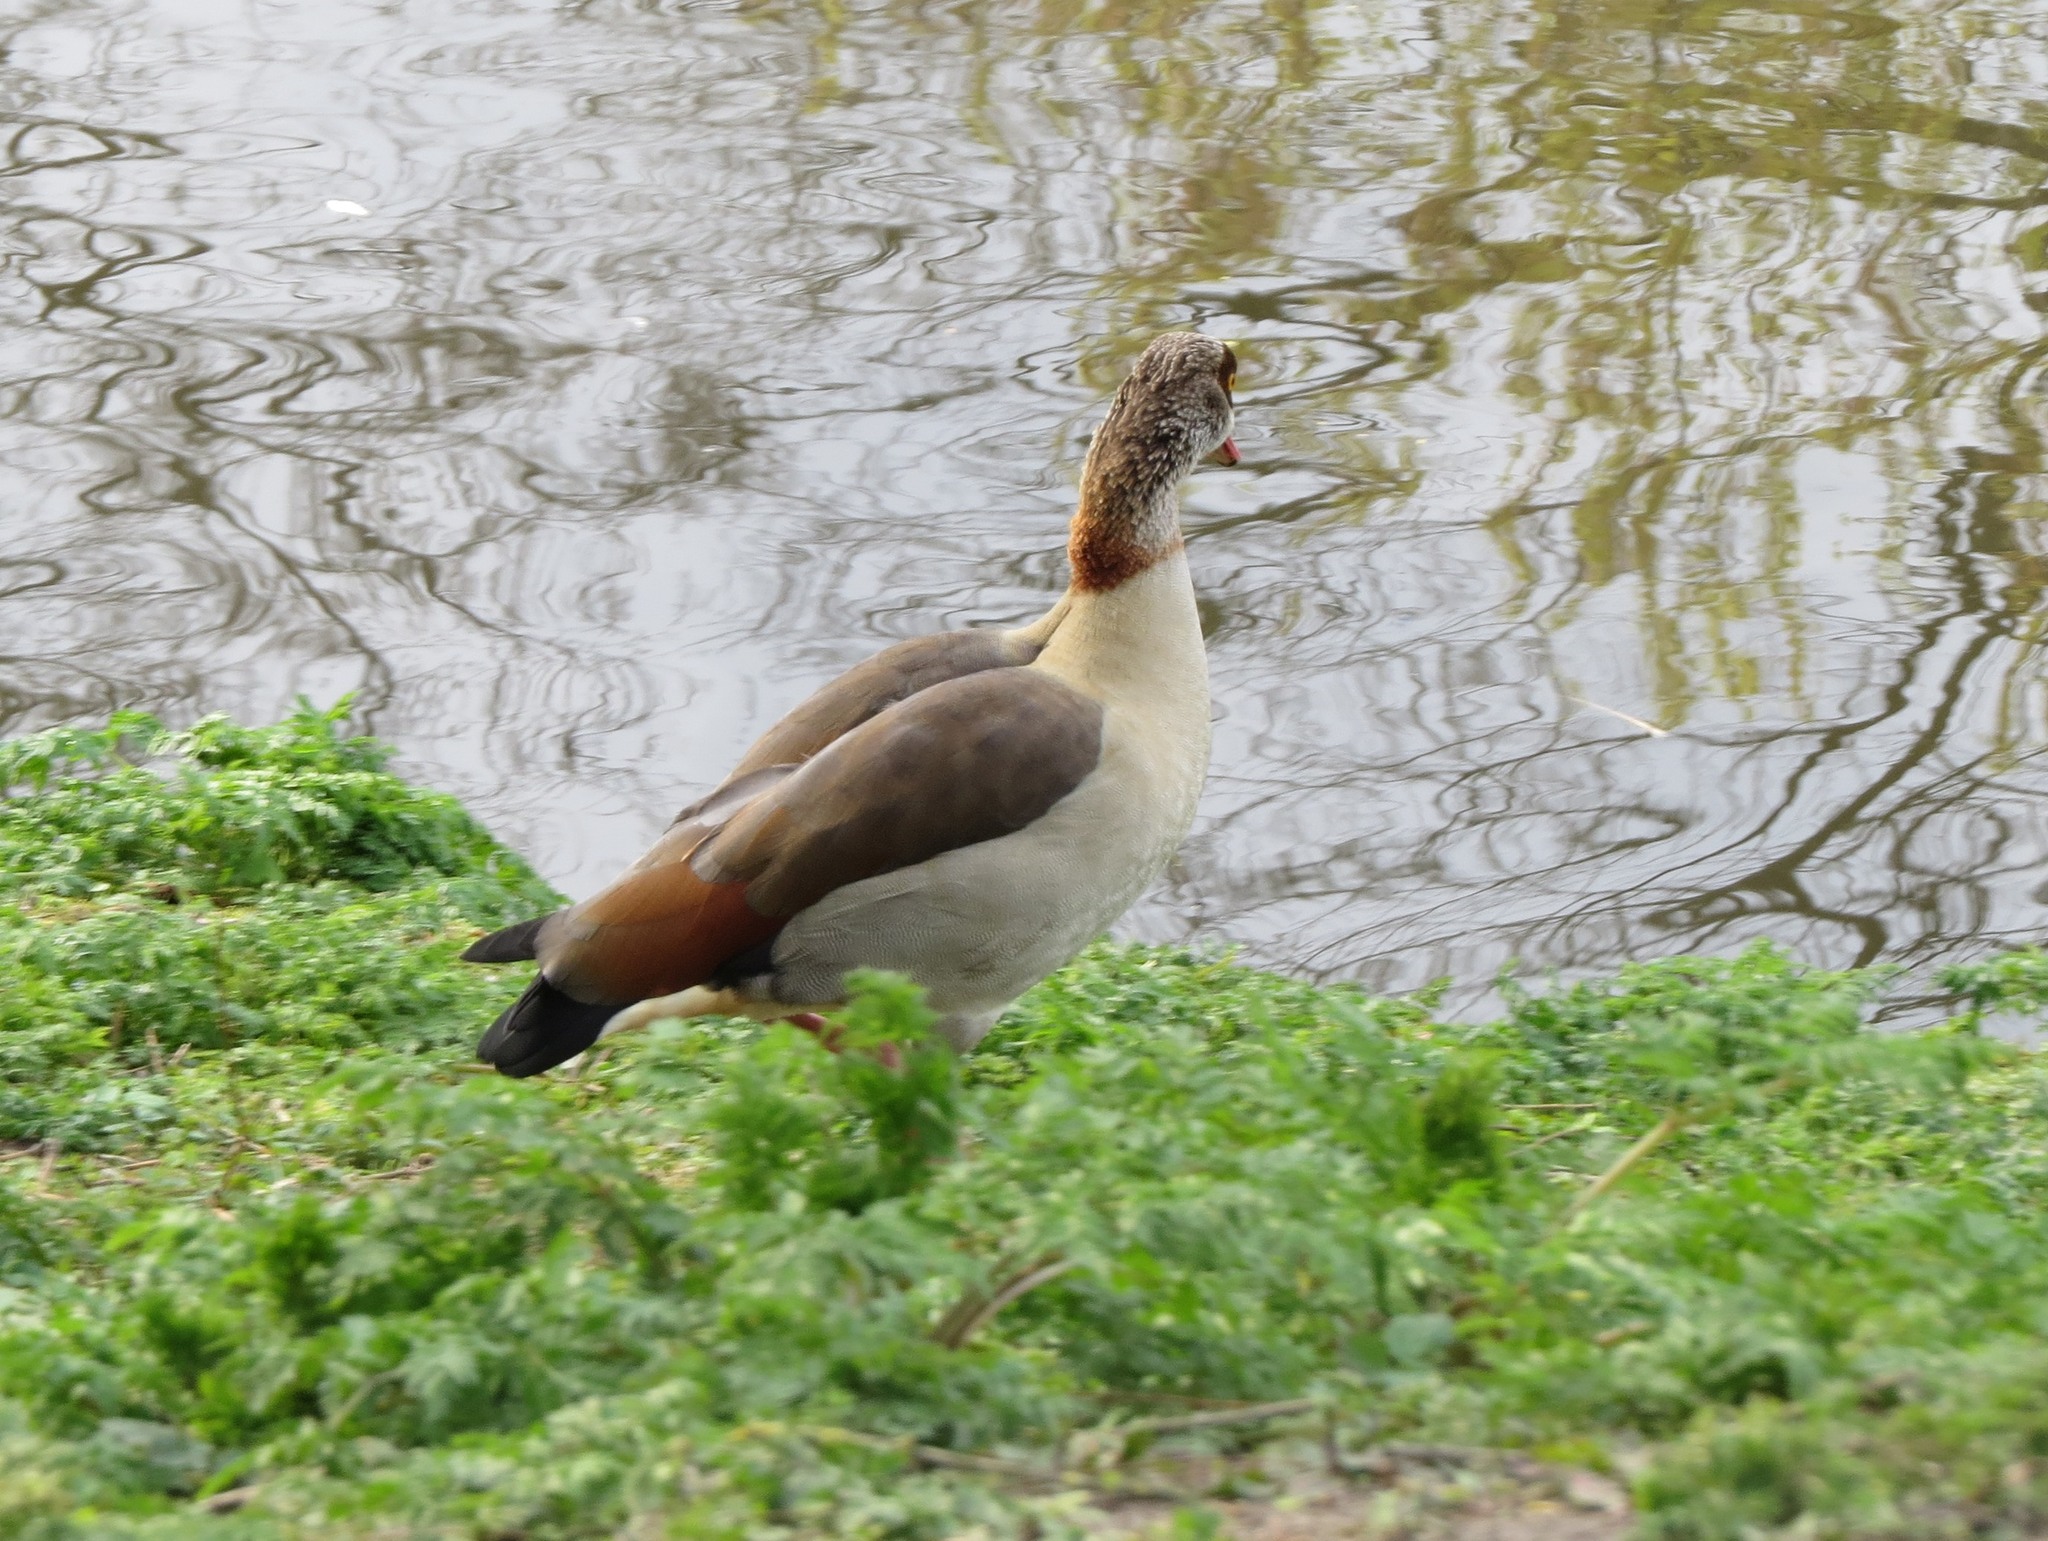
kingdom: Animalia
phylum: Chordata
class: Aves
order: Anseriformes
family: Anatidae
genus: Alopochen
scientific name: Alopochen aegyptiaca
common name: Egyptian goose
